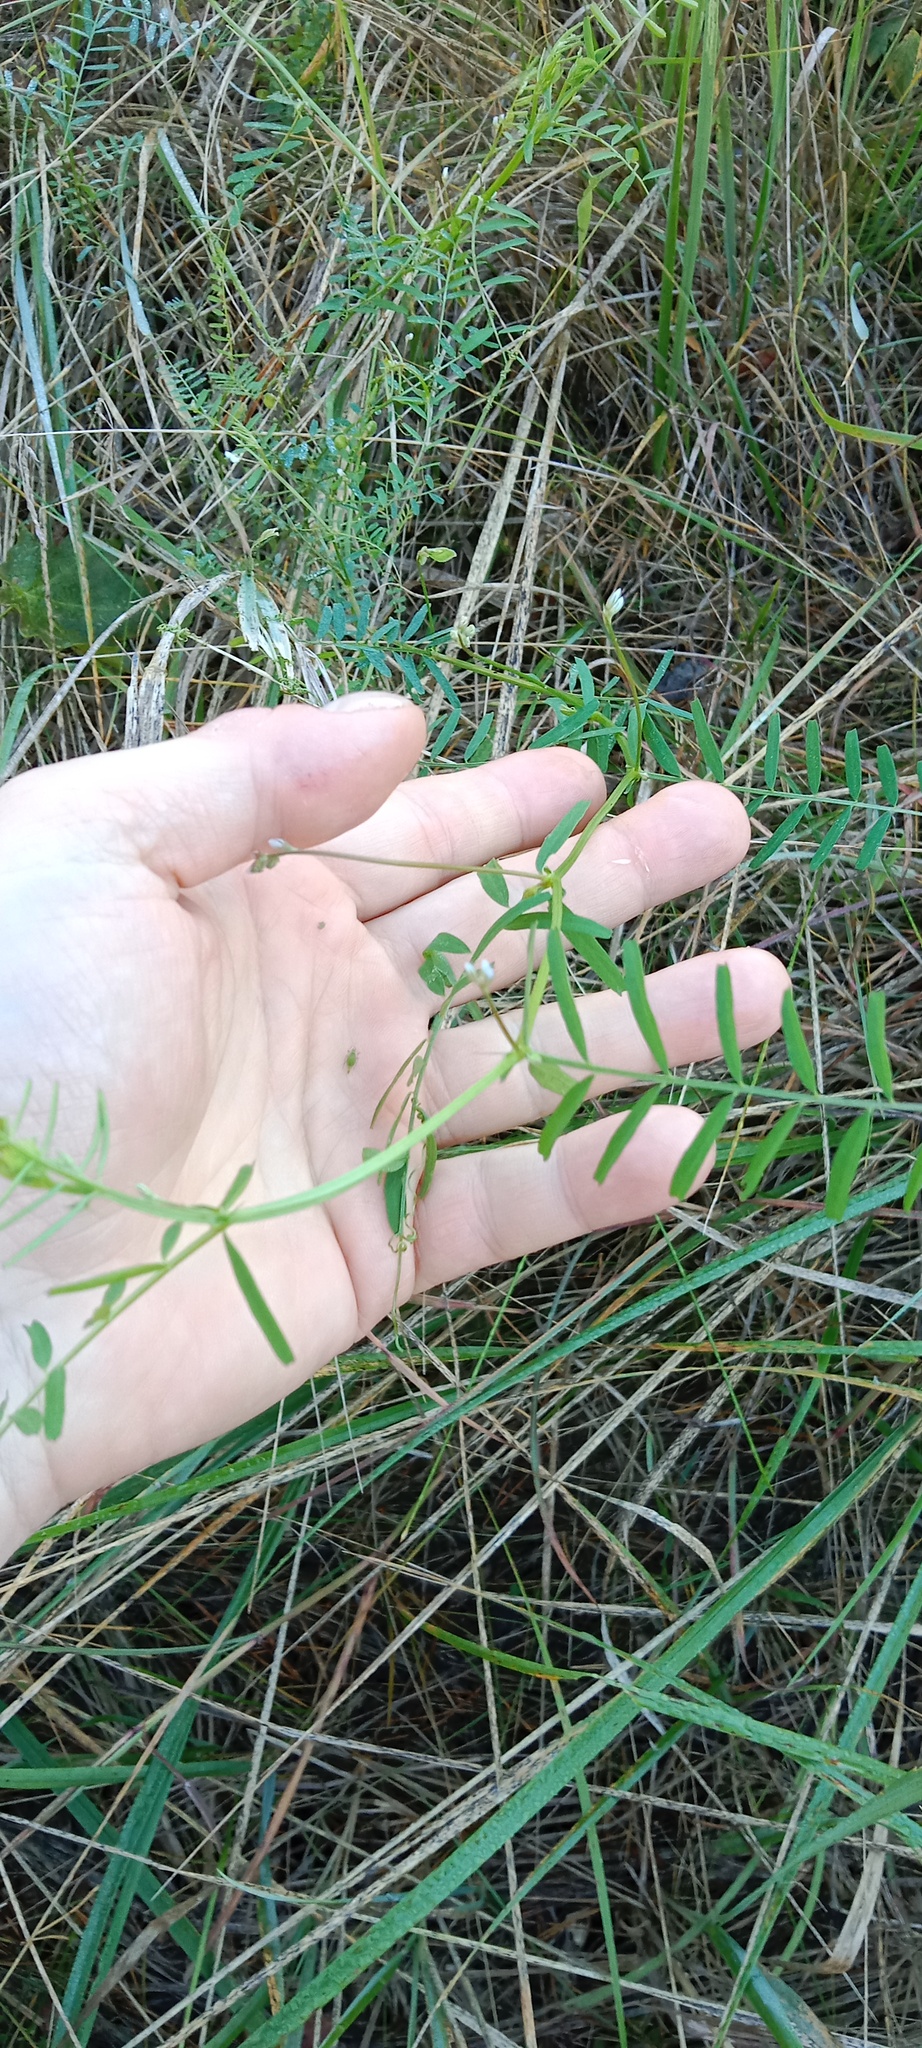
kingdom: Plantae
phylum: Tracheophyta
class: Magnoliopsida
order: Fabales
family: Fabaceae
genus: Vicia
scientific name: Vicia hirsuta
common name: Tiny vetch
